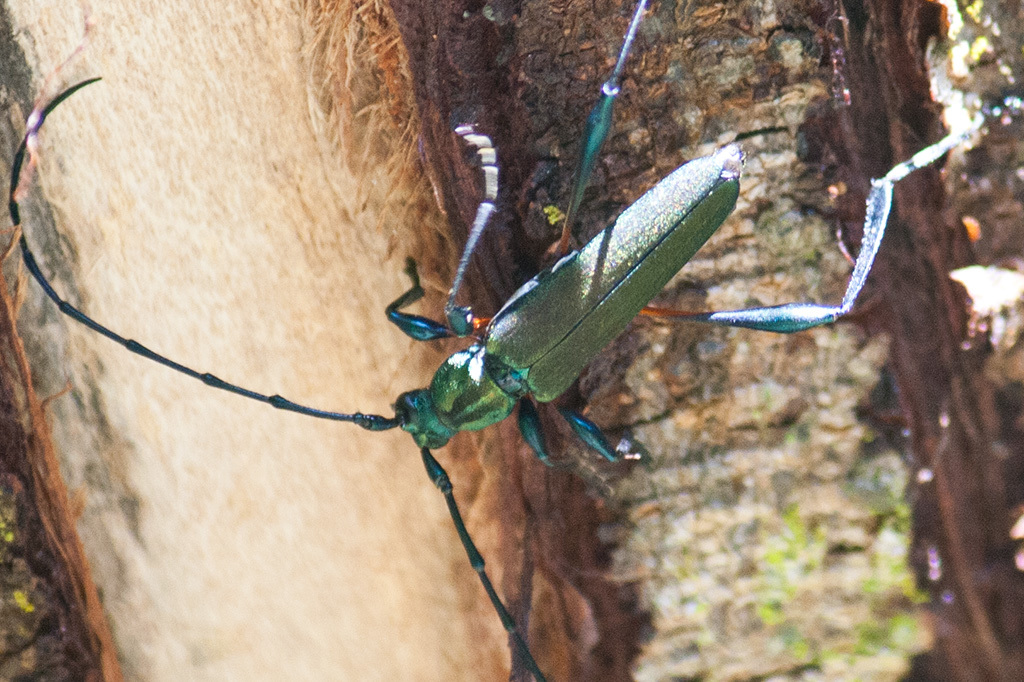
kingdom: Animalia
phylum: Arthropoda
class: Insecta
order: Coleoptera
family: Cerambycidae
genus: Litopus
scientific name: Litopus latipes
